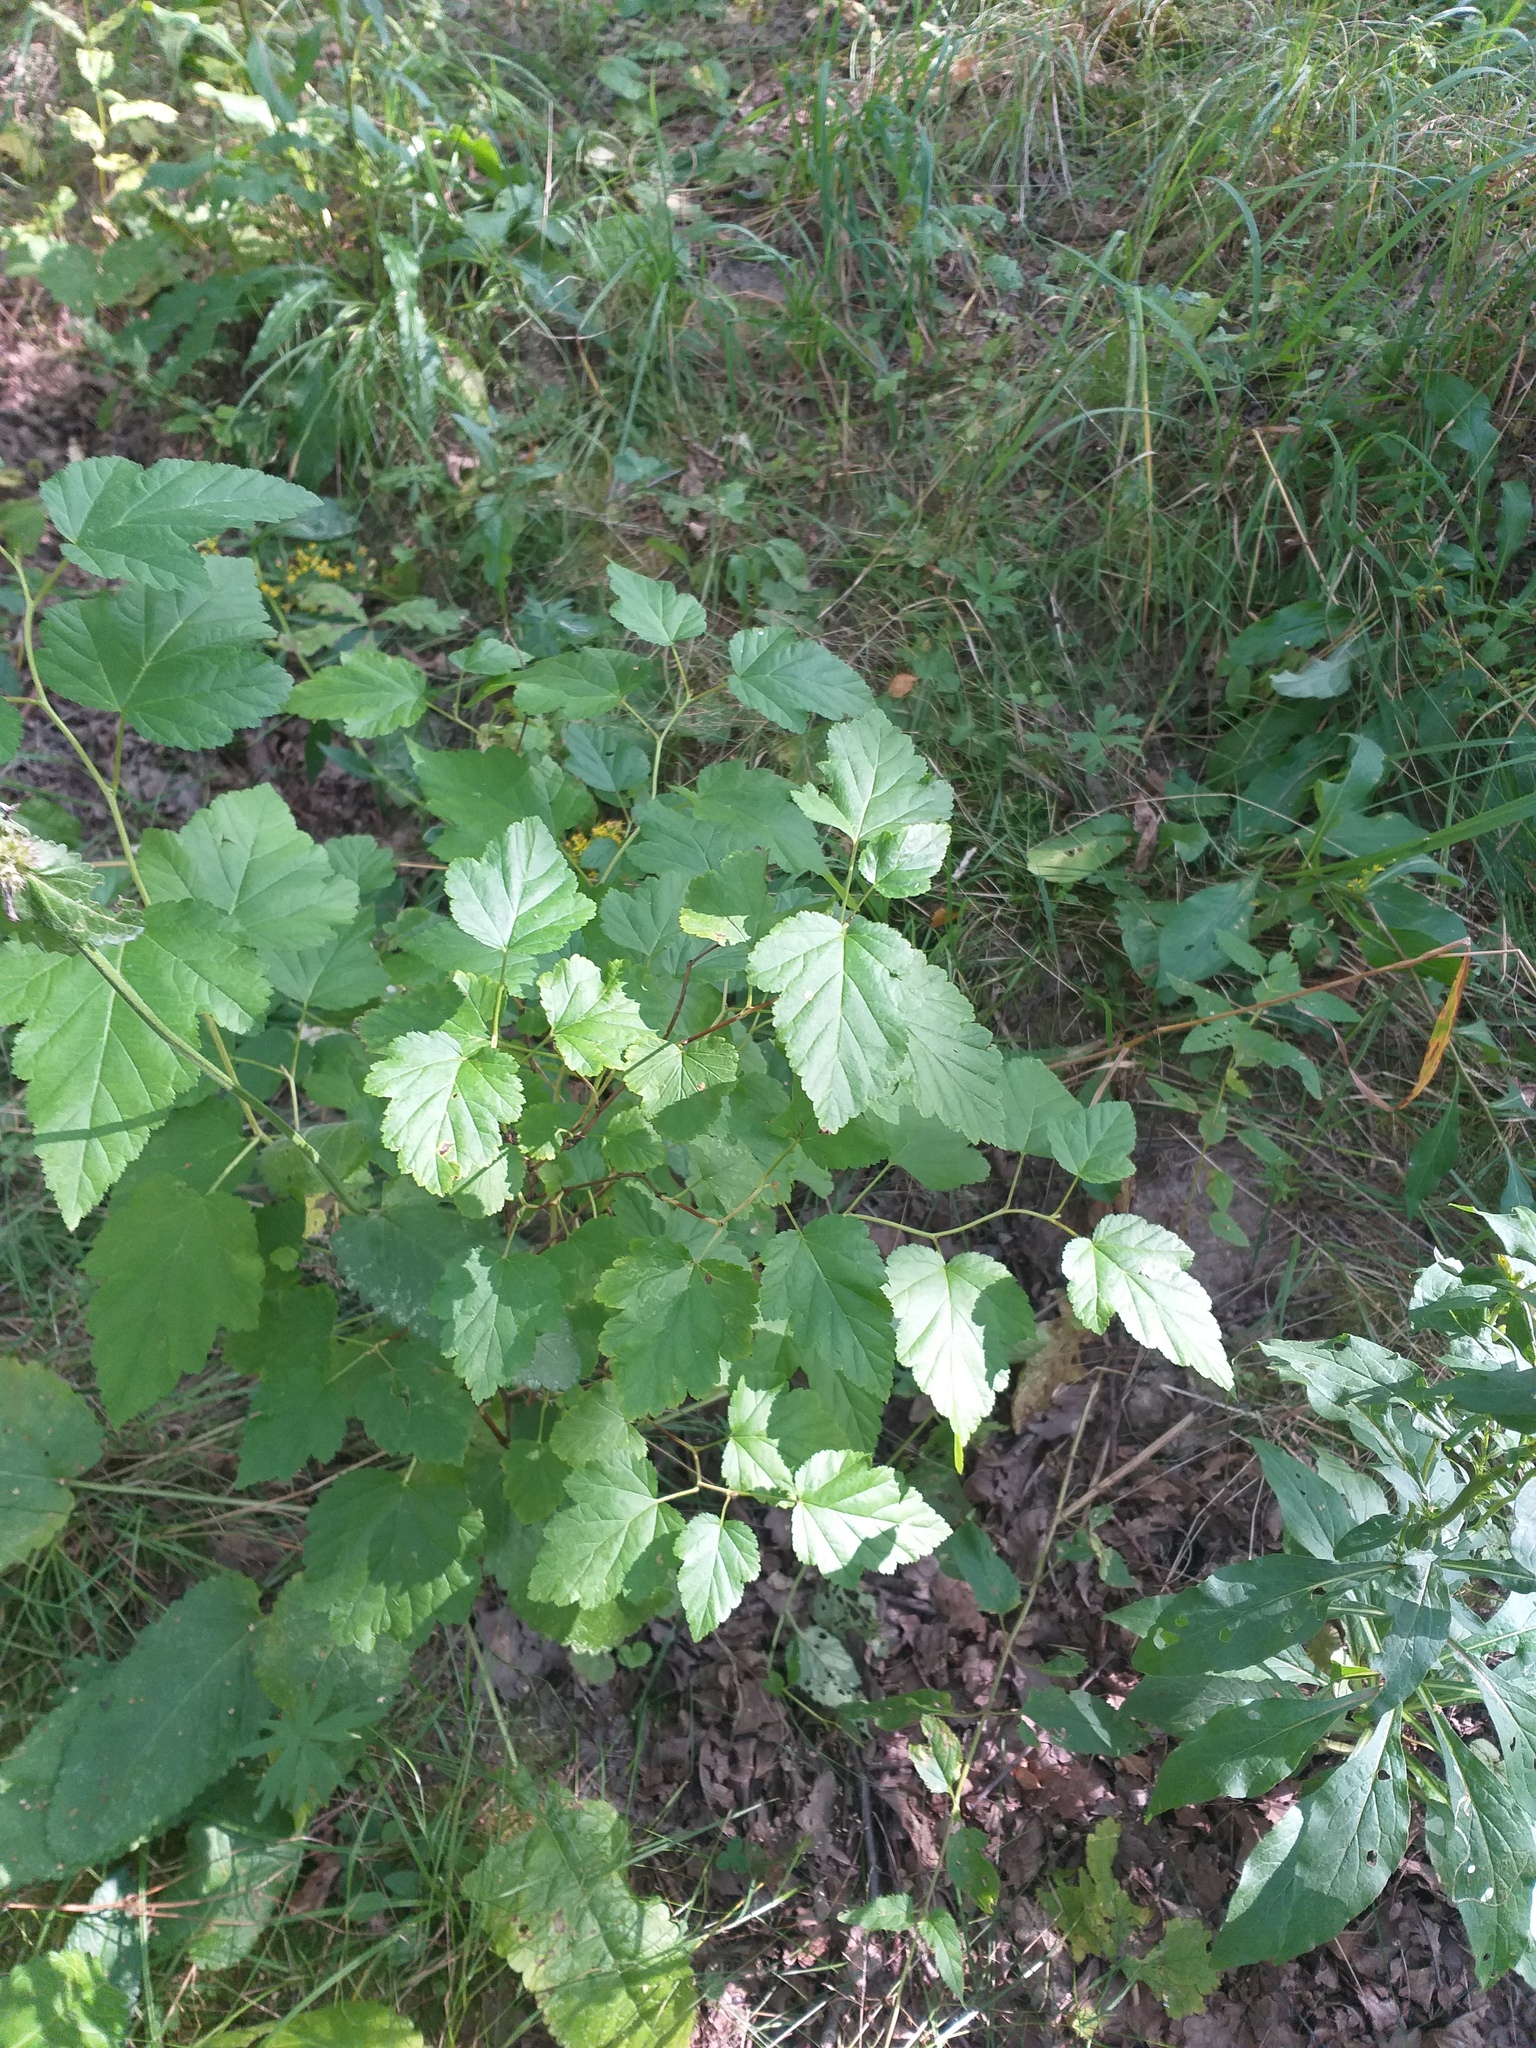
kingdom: Plantae
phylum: Tracheophyta
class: Magnoliopsida
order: Rosales
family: Rosaceae
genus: Physocarpus
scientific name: Physocarpus opulifolius
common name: Ninebark
